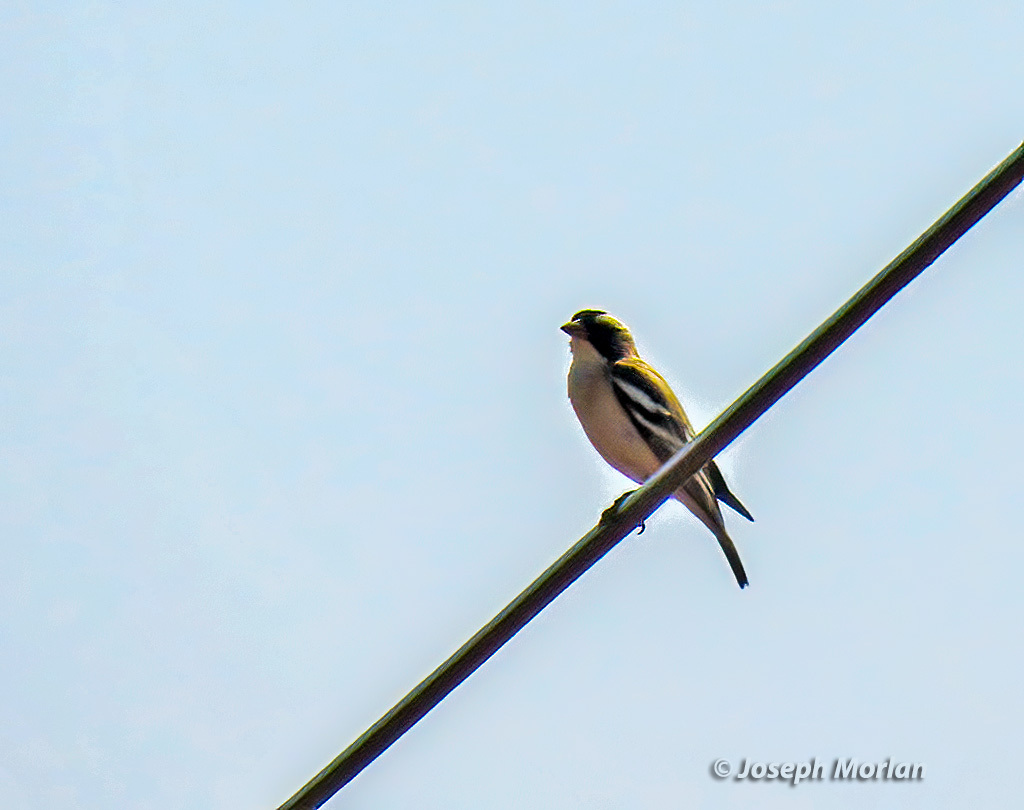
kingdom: Animalia
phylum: Chordata
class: Aves
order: Passeriformes
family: Passeridae
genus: Plocepasser
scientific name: Plocepasser mahali
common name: White-browed sparrow-weaver
